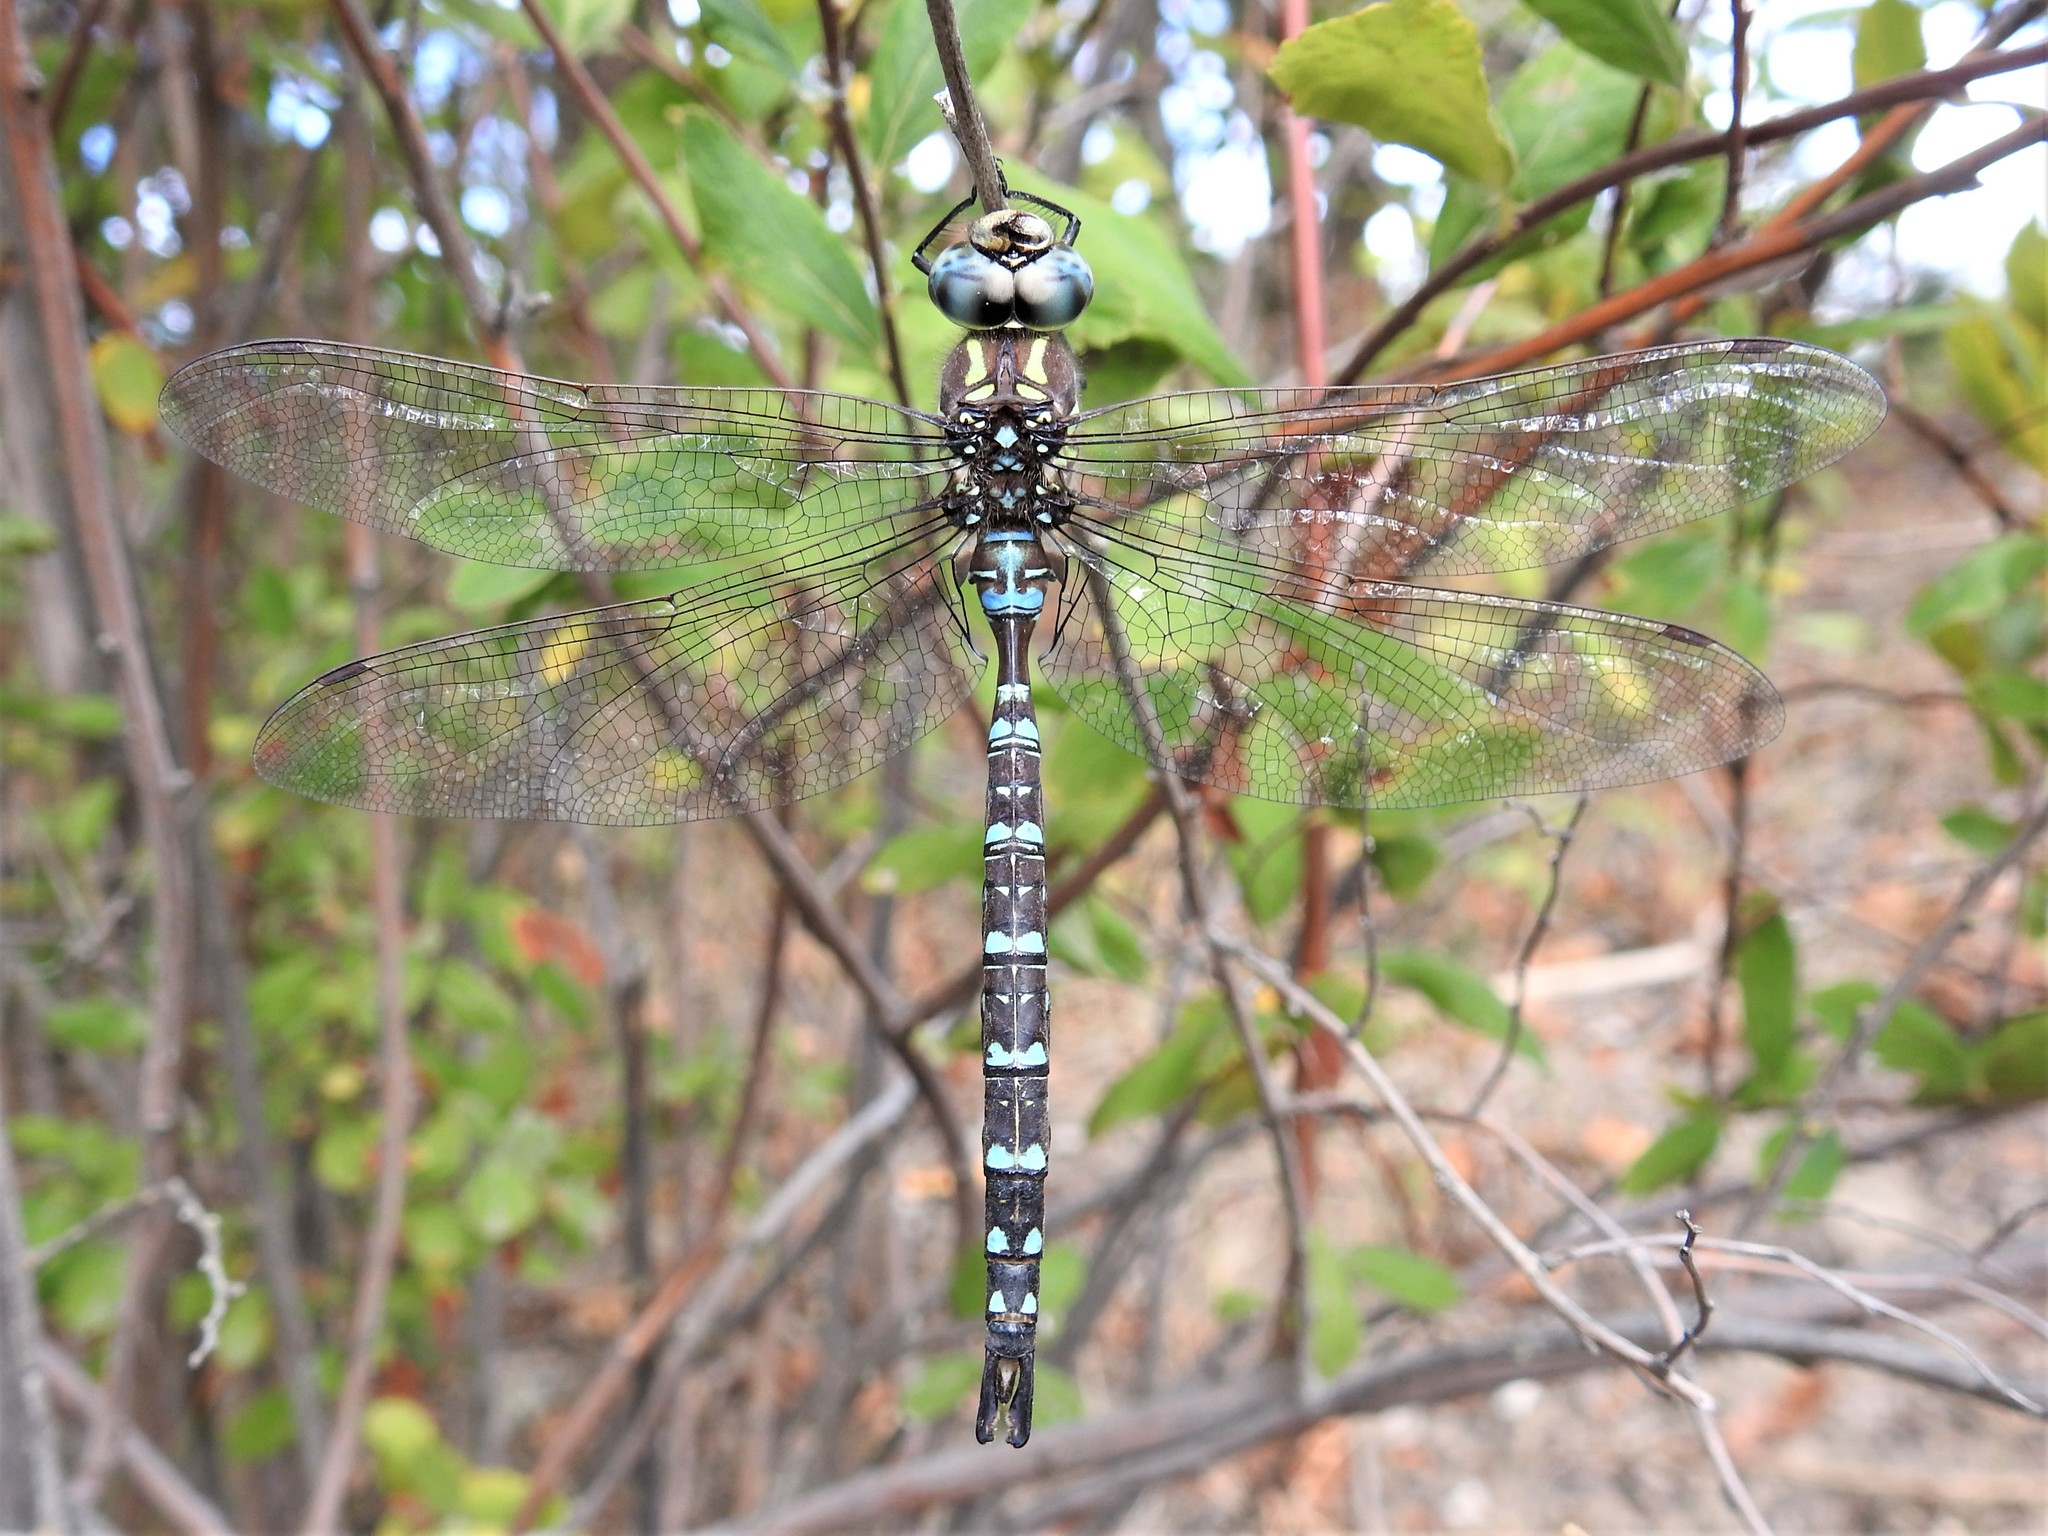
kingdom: Animalia
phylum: Arthropoda
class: Insecta
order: Odonata
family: Aeshnidae
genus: Aeshna
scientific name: Aeshna umbrosa
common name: Shadow darner
